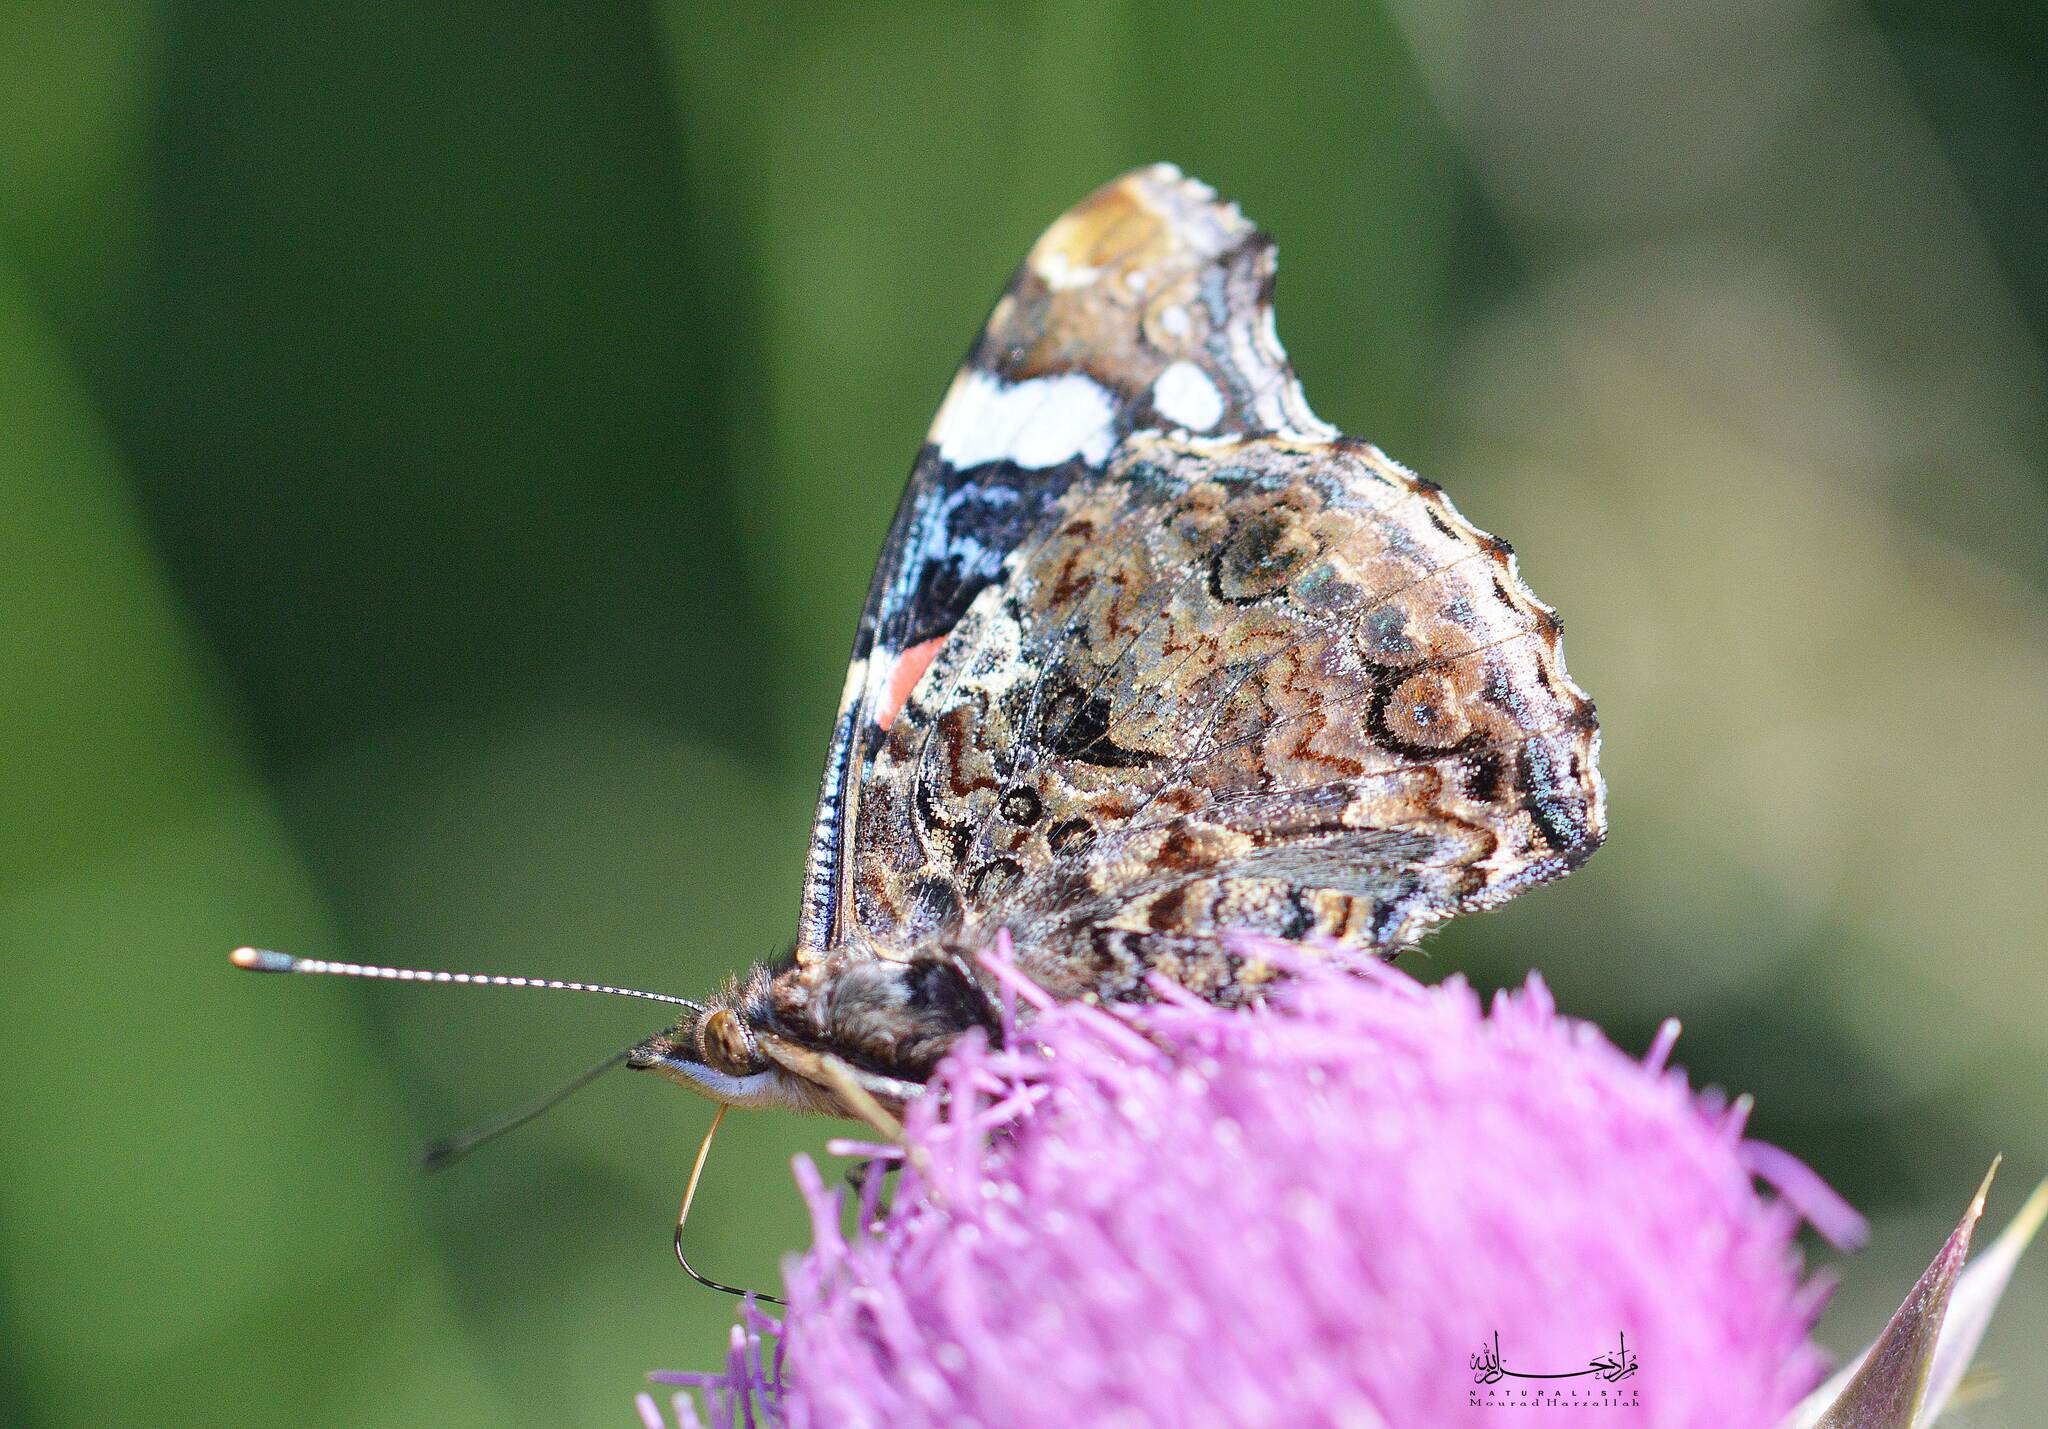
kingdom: Animalia
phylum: Arthropoda
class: Insecta
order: Lepidoptera
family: Nymphalidae
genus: Vanessa
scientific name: Vanessa atalanta
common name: Red admiral
